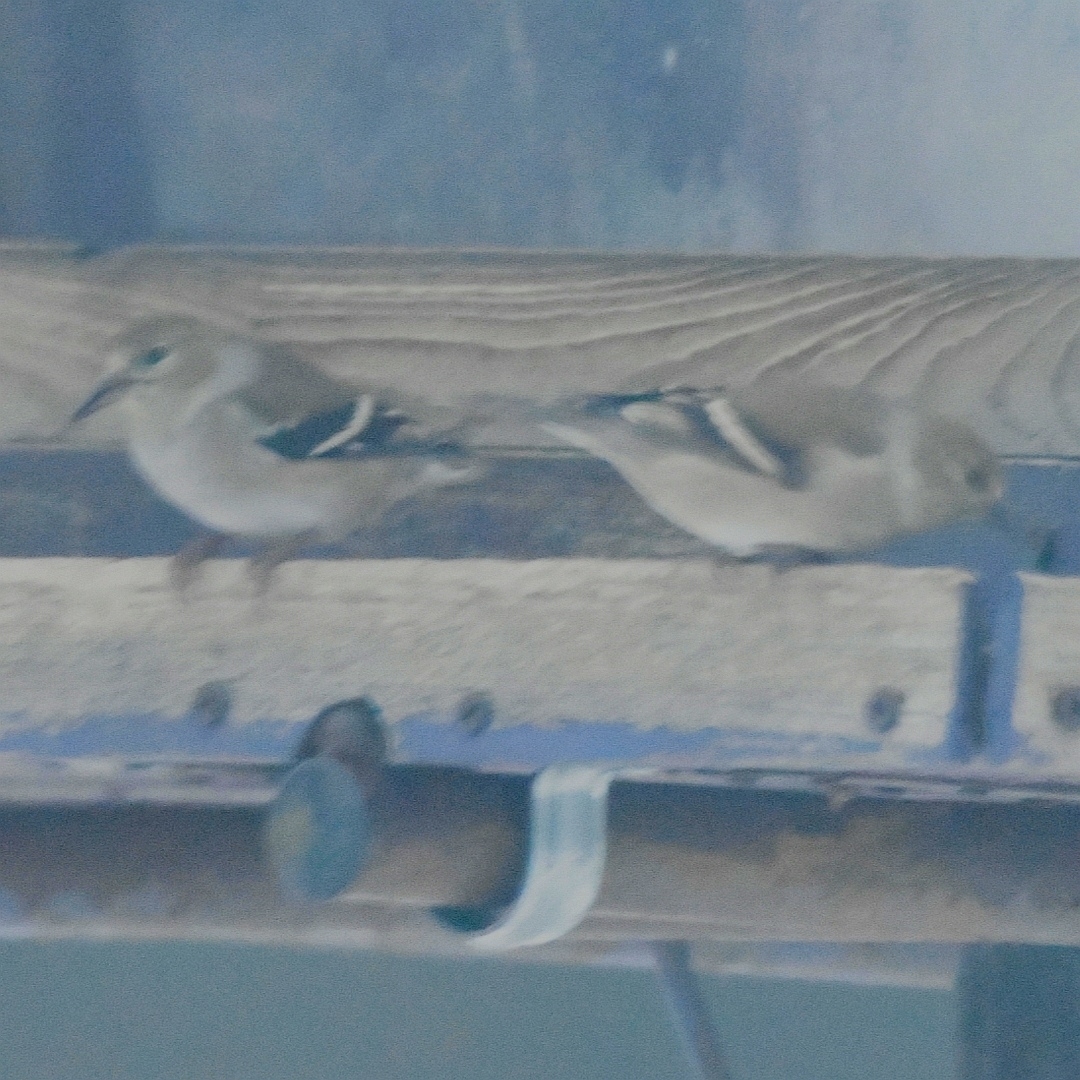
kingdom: Animalia
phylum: Chordata
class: Aves
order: Passeriformes
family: Fringillidae
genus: Spinus
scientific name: Spinus tristis
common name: American goldfinch
